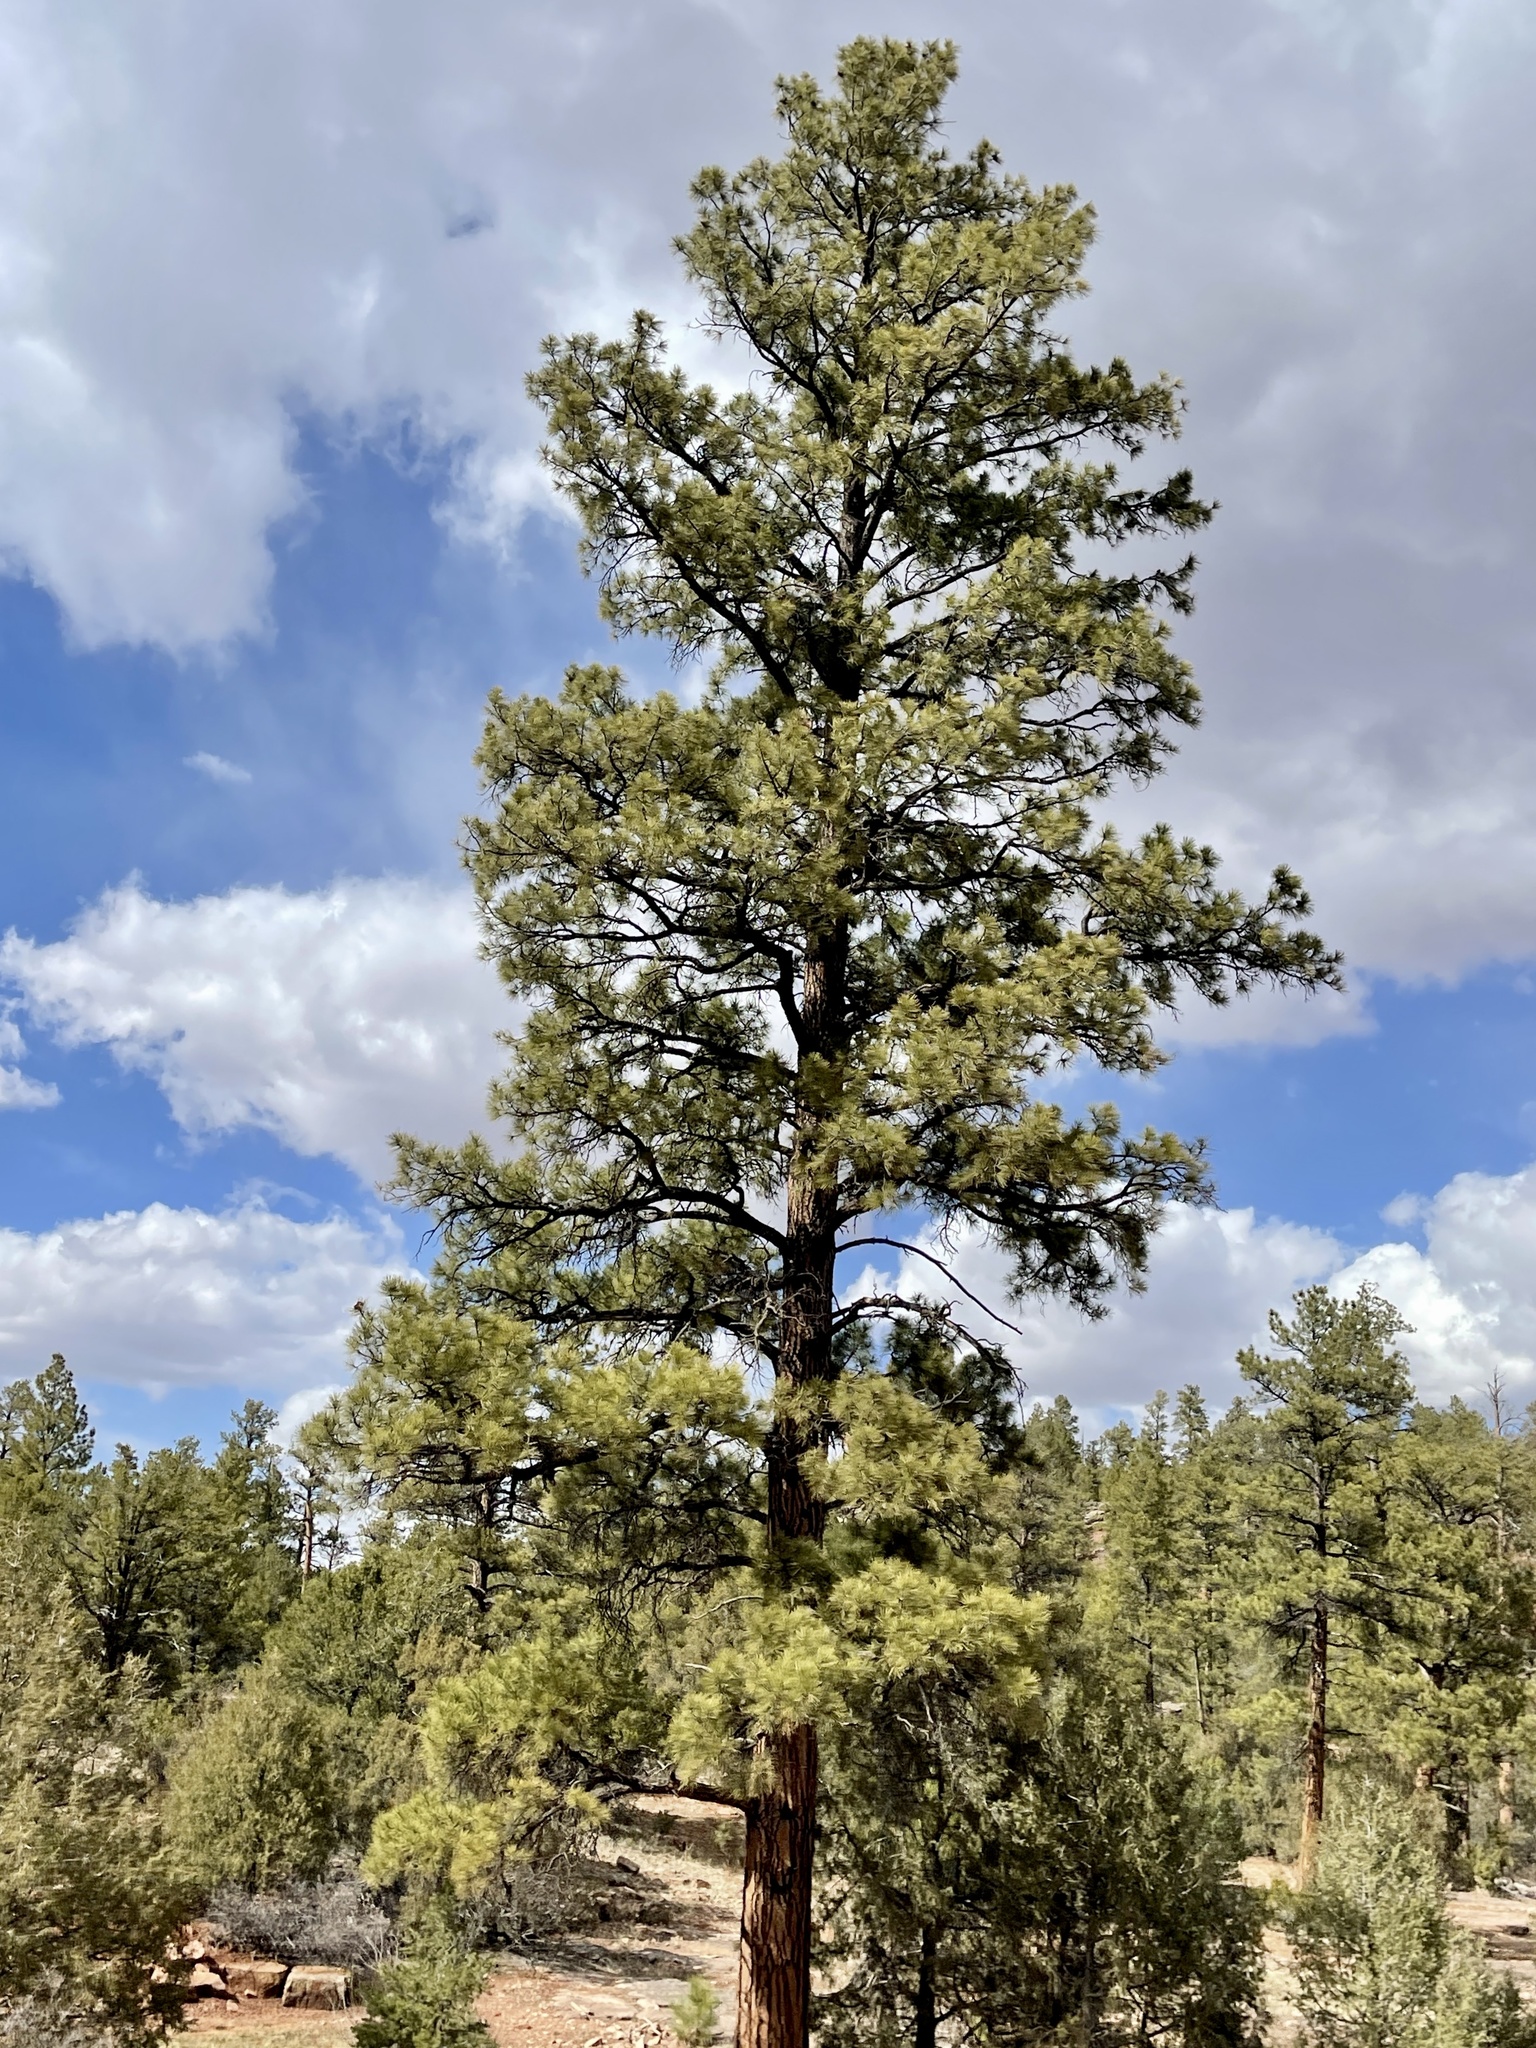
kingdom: Plantae
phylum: Tracheophyta
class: Pinopsida
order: Pinales
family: Pinaceae
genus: Pinus
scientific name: Pinus ponderosa
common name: Western yellow-pine
